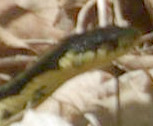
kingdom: Animalia
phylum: Chordata
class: Squamata
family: Colubridae
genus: Thamnophis
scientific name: Thamnophis sirtalis
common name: Common garter snake
